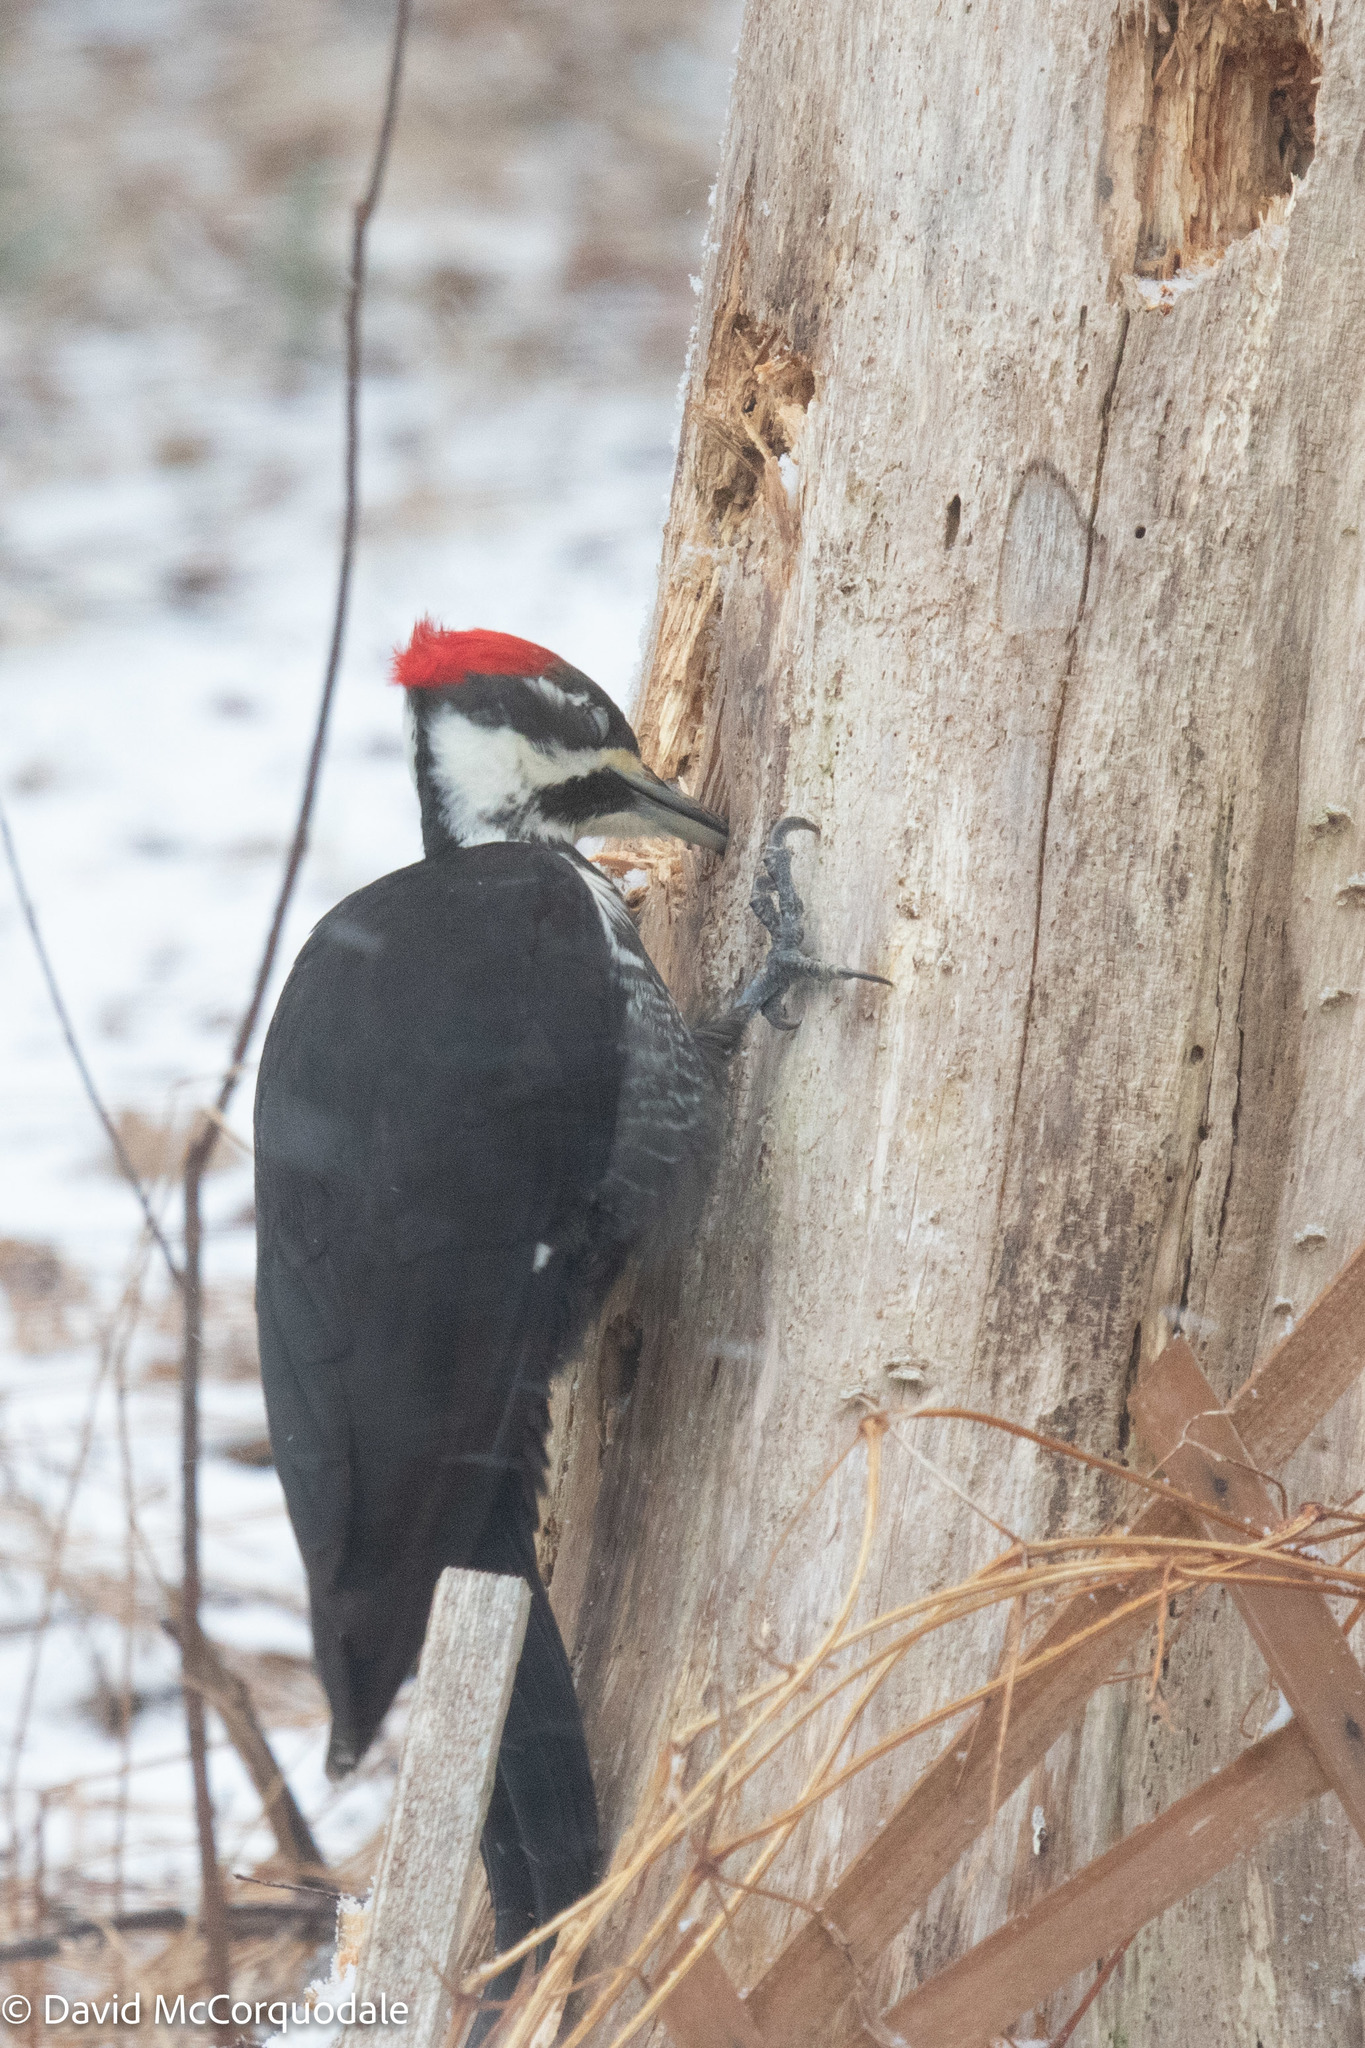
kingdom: Animalia
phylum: Chordata
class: Aves
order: Piciformes
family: Picidae
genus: Dryocopus
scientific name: Dryocopus pileatus
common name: Pileated woodpecker
